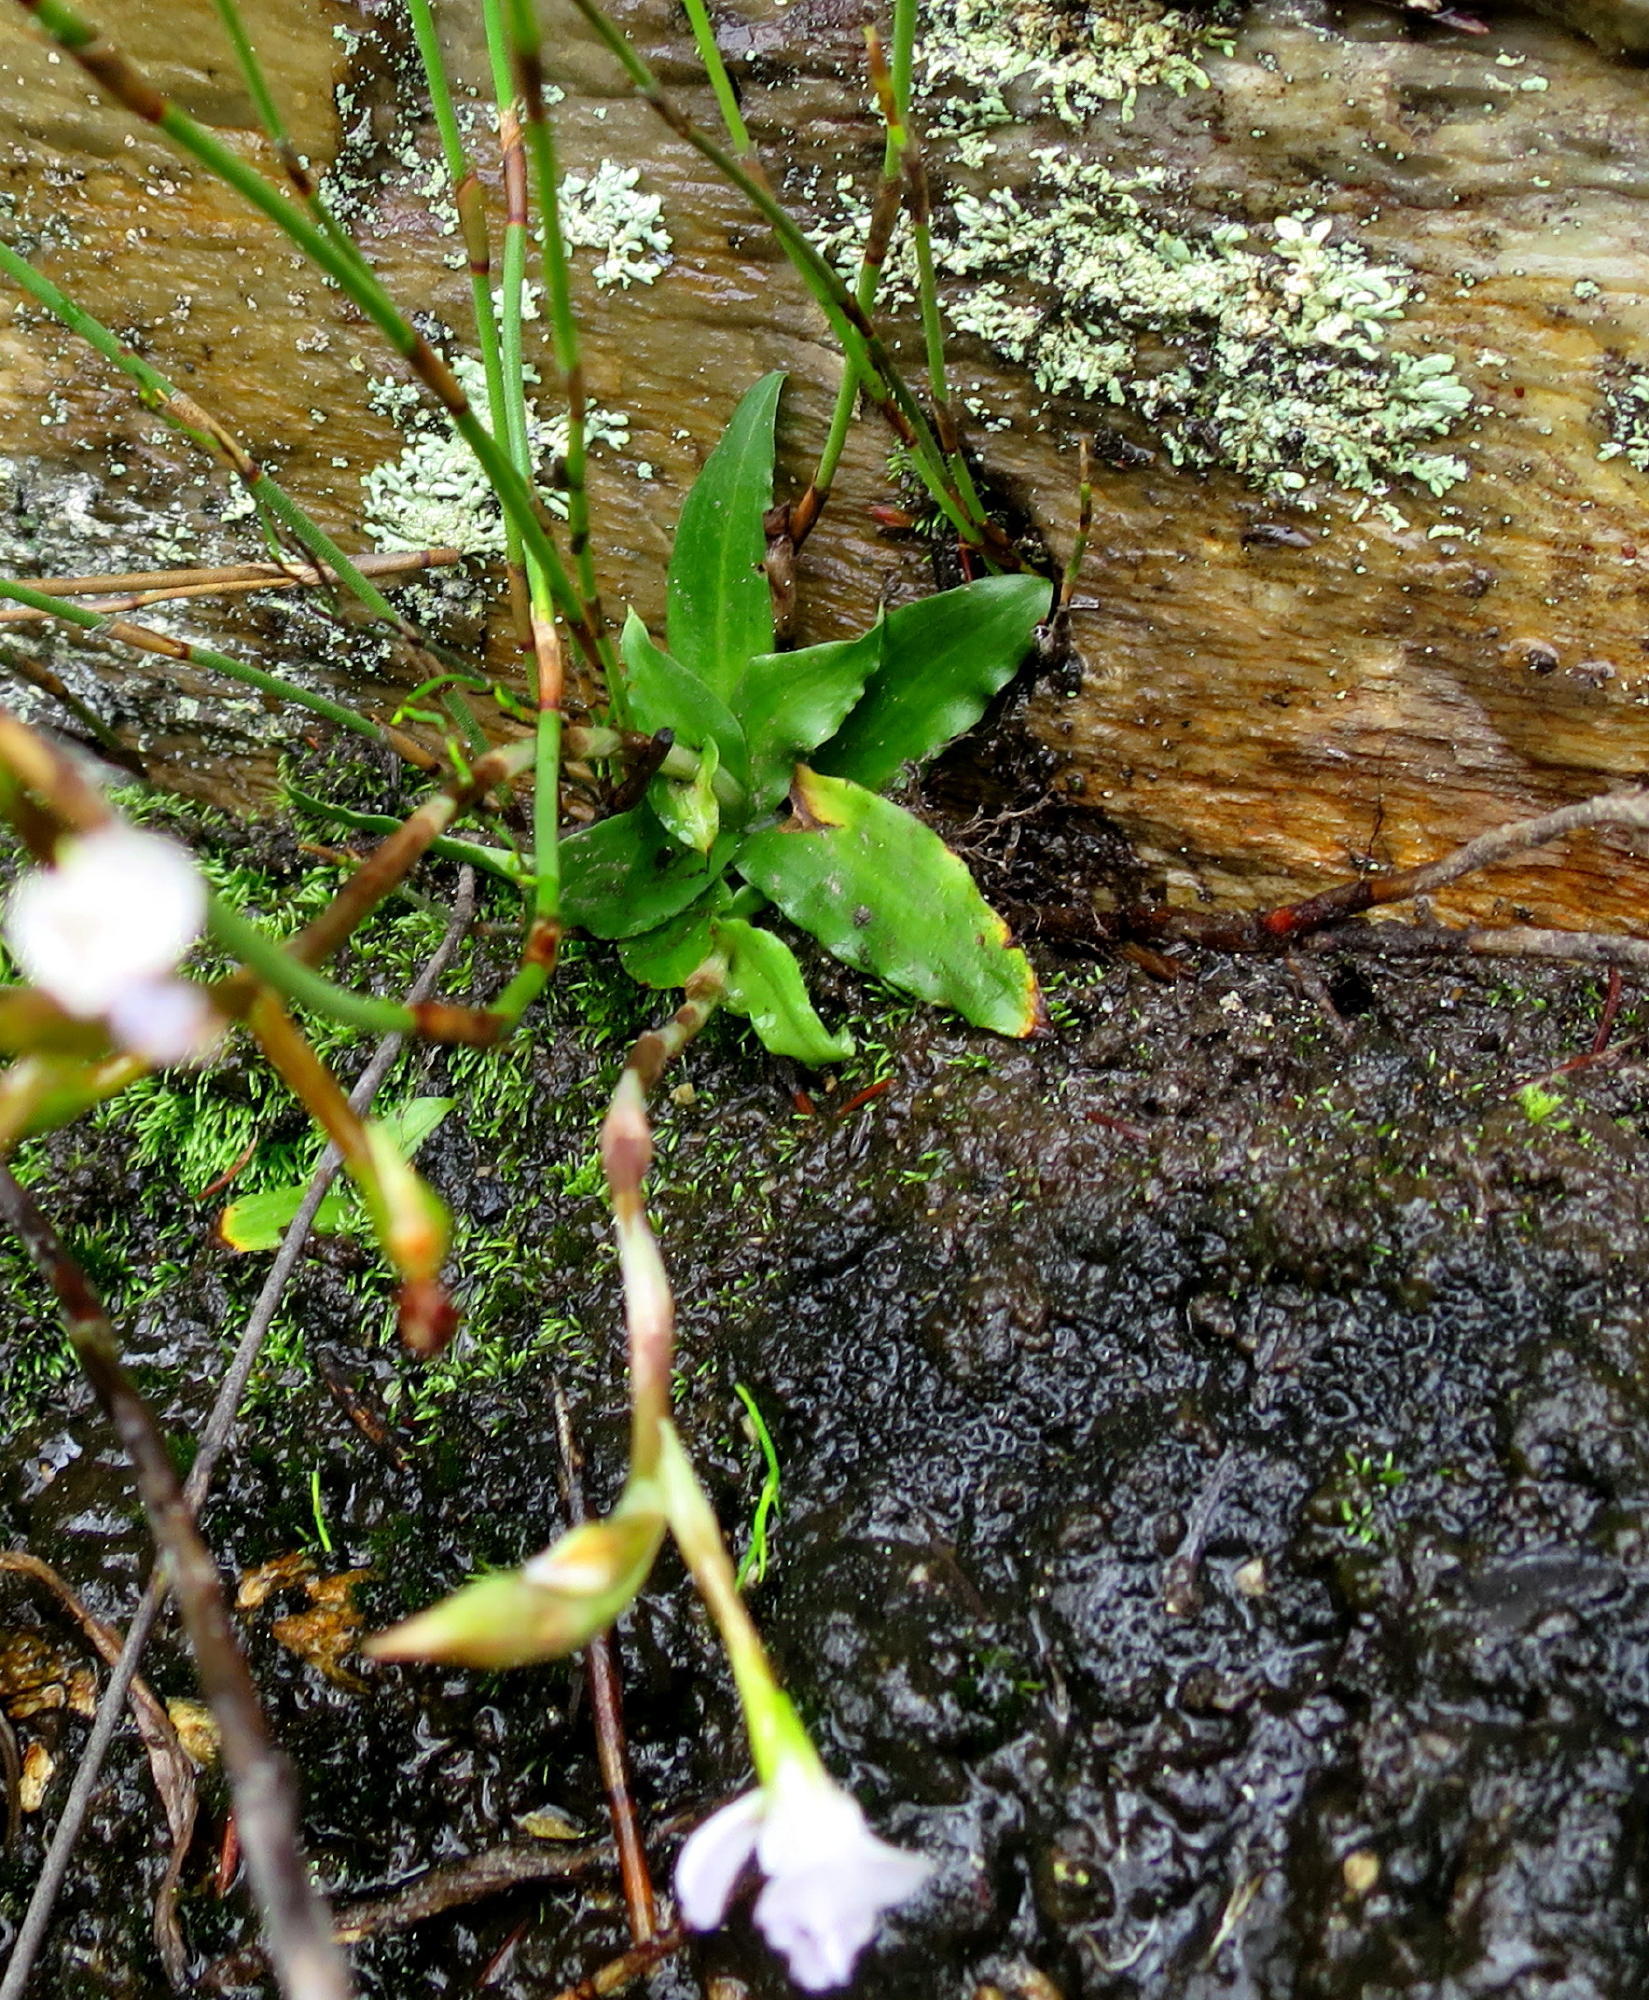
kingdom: Plantae
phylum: Tracheophyta
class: Liliopsida
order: Asparagales
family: Orchidaceae
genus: Disa
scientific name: Disa sagittalis
